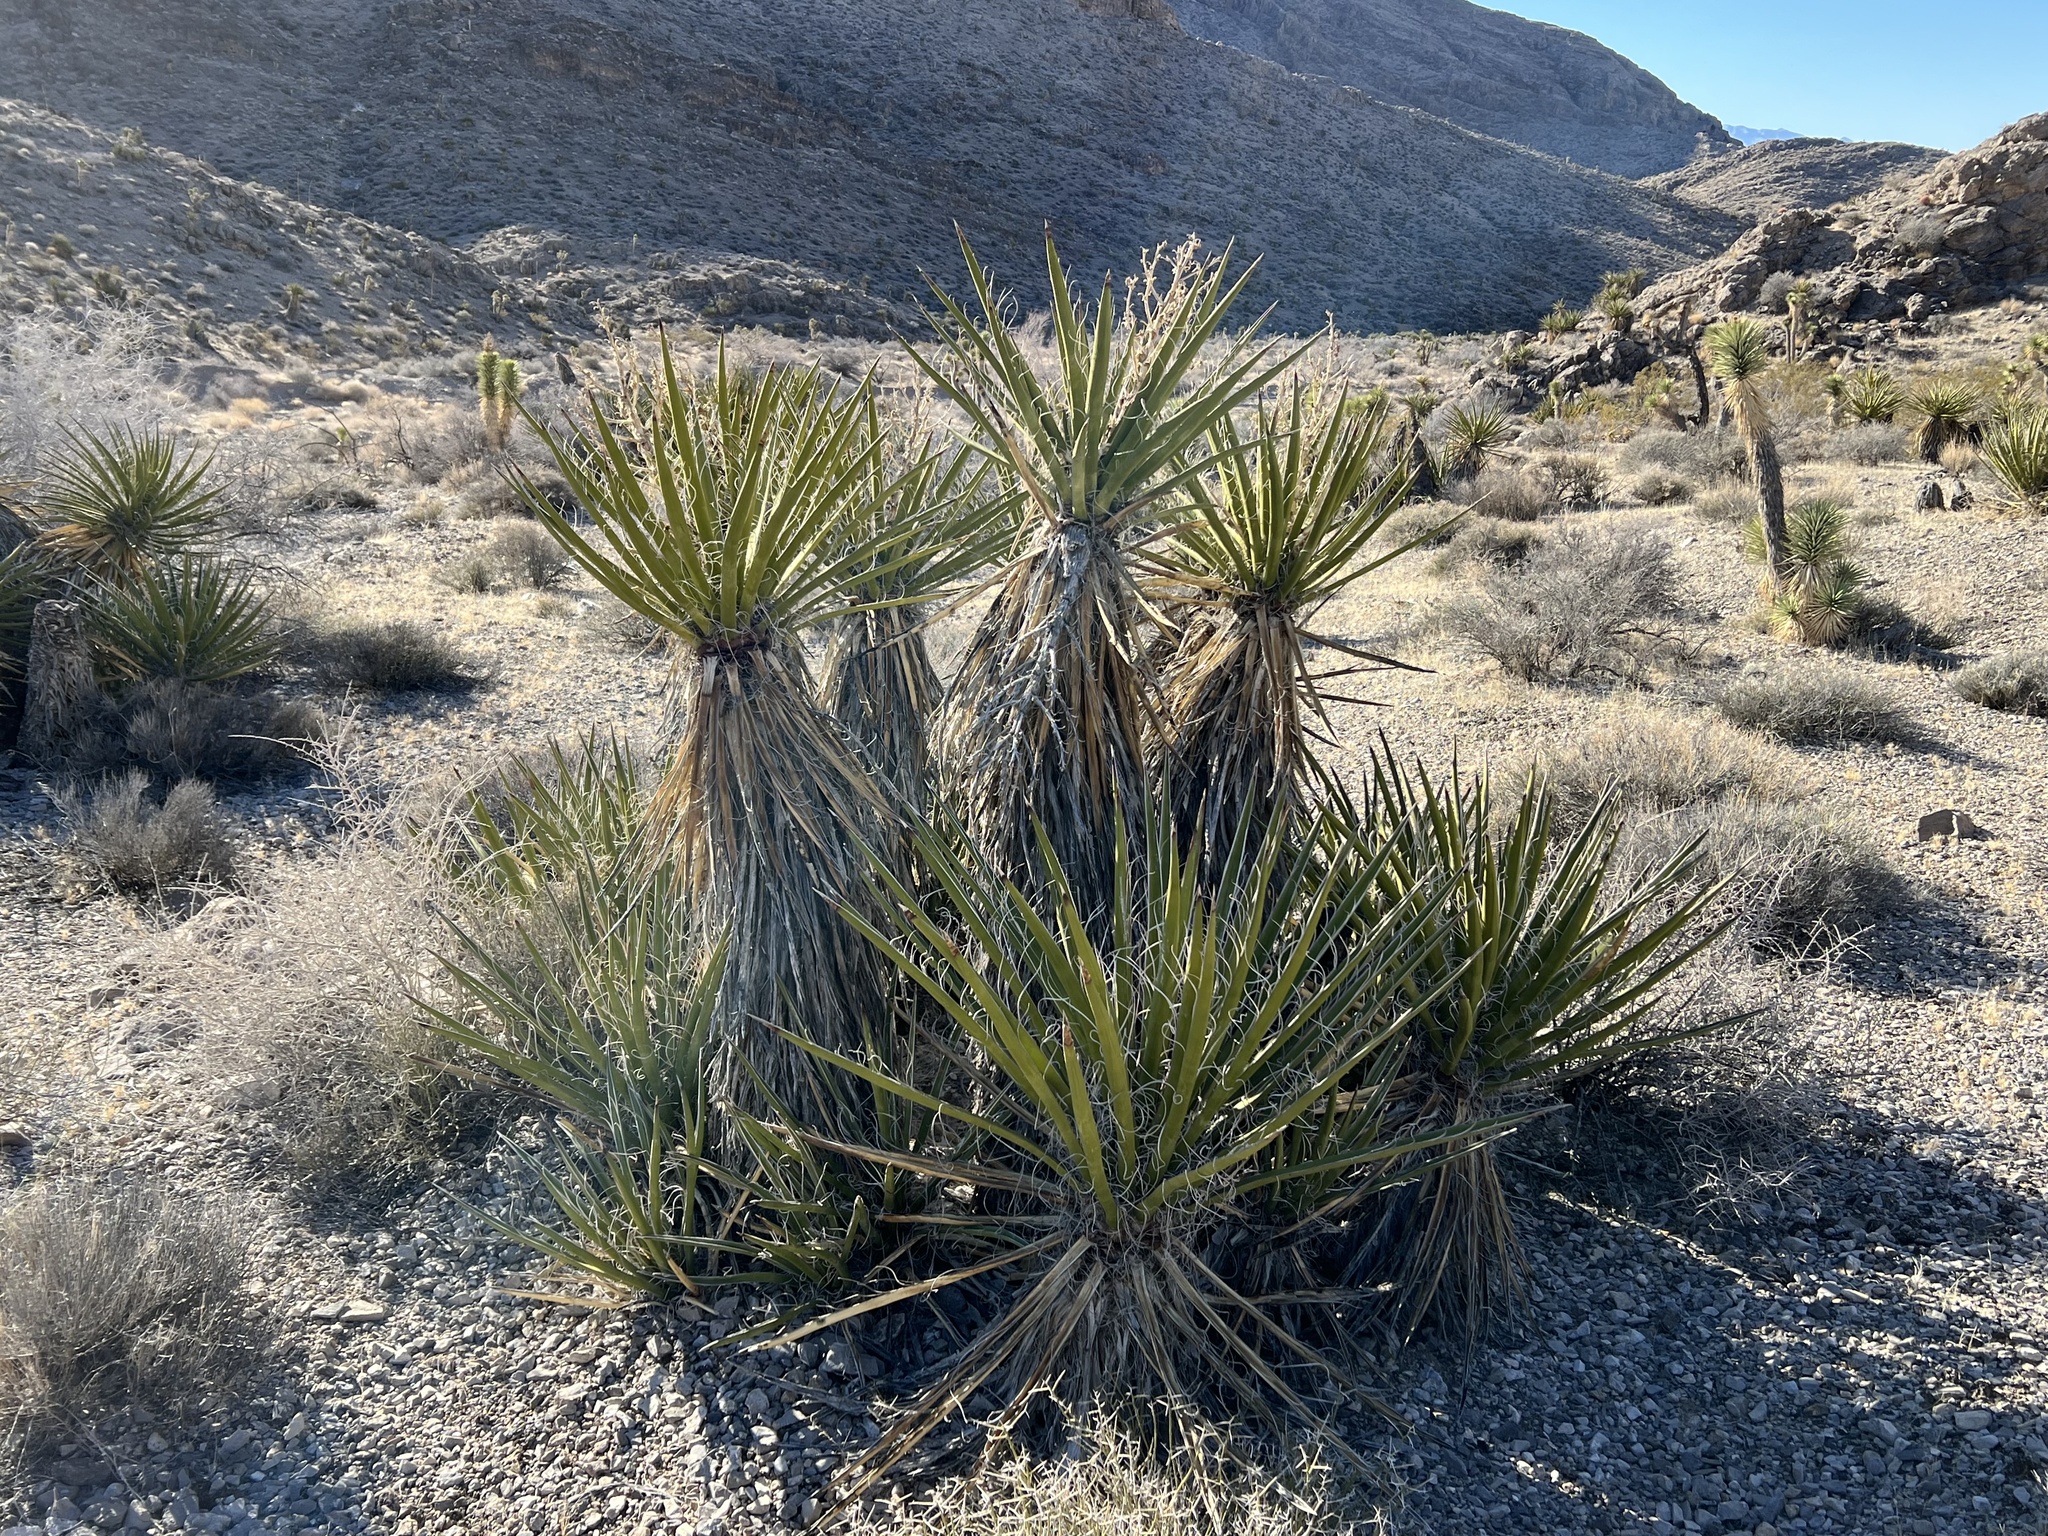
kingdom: Plantae
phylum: Tracheophyta
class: Liliopsida
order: Asparagales
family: Asparagaceae
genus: Yucca
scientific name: Yucca schidigera
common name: Mojave yucca
